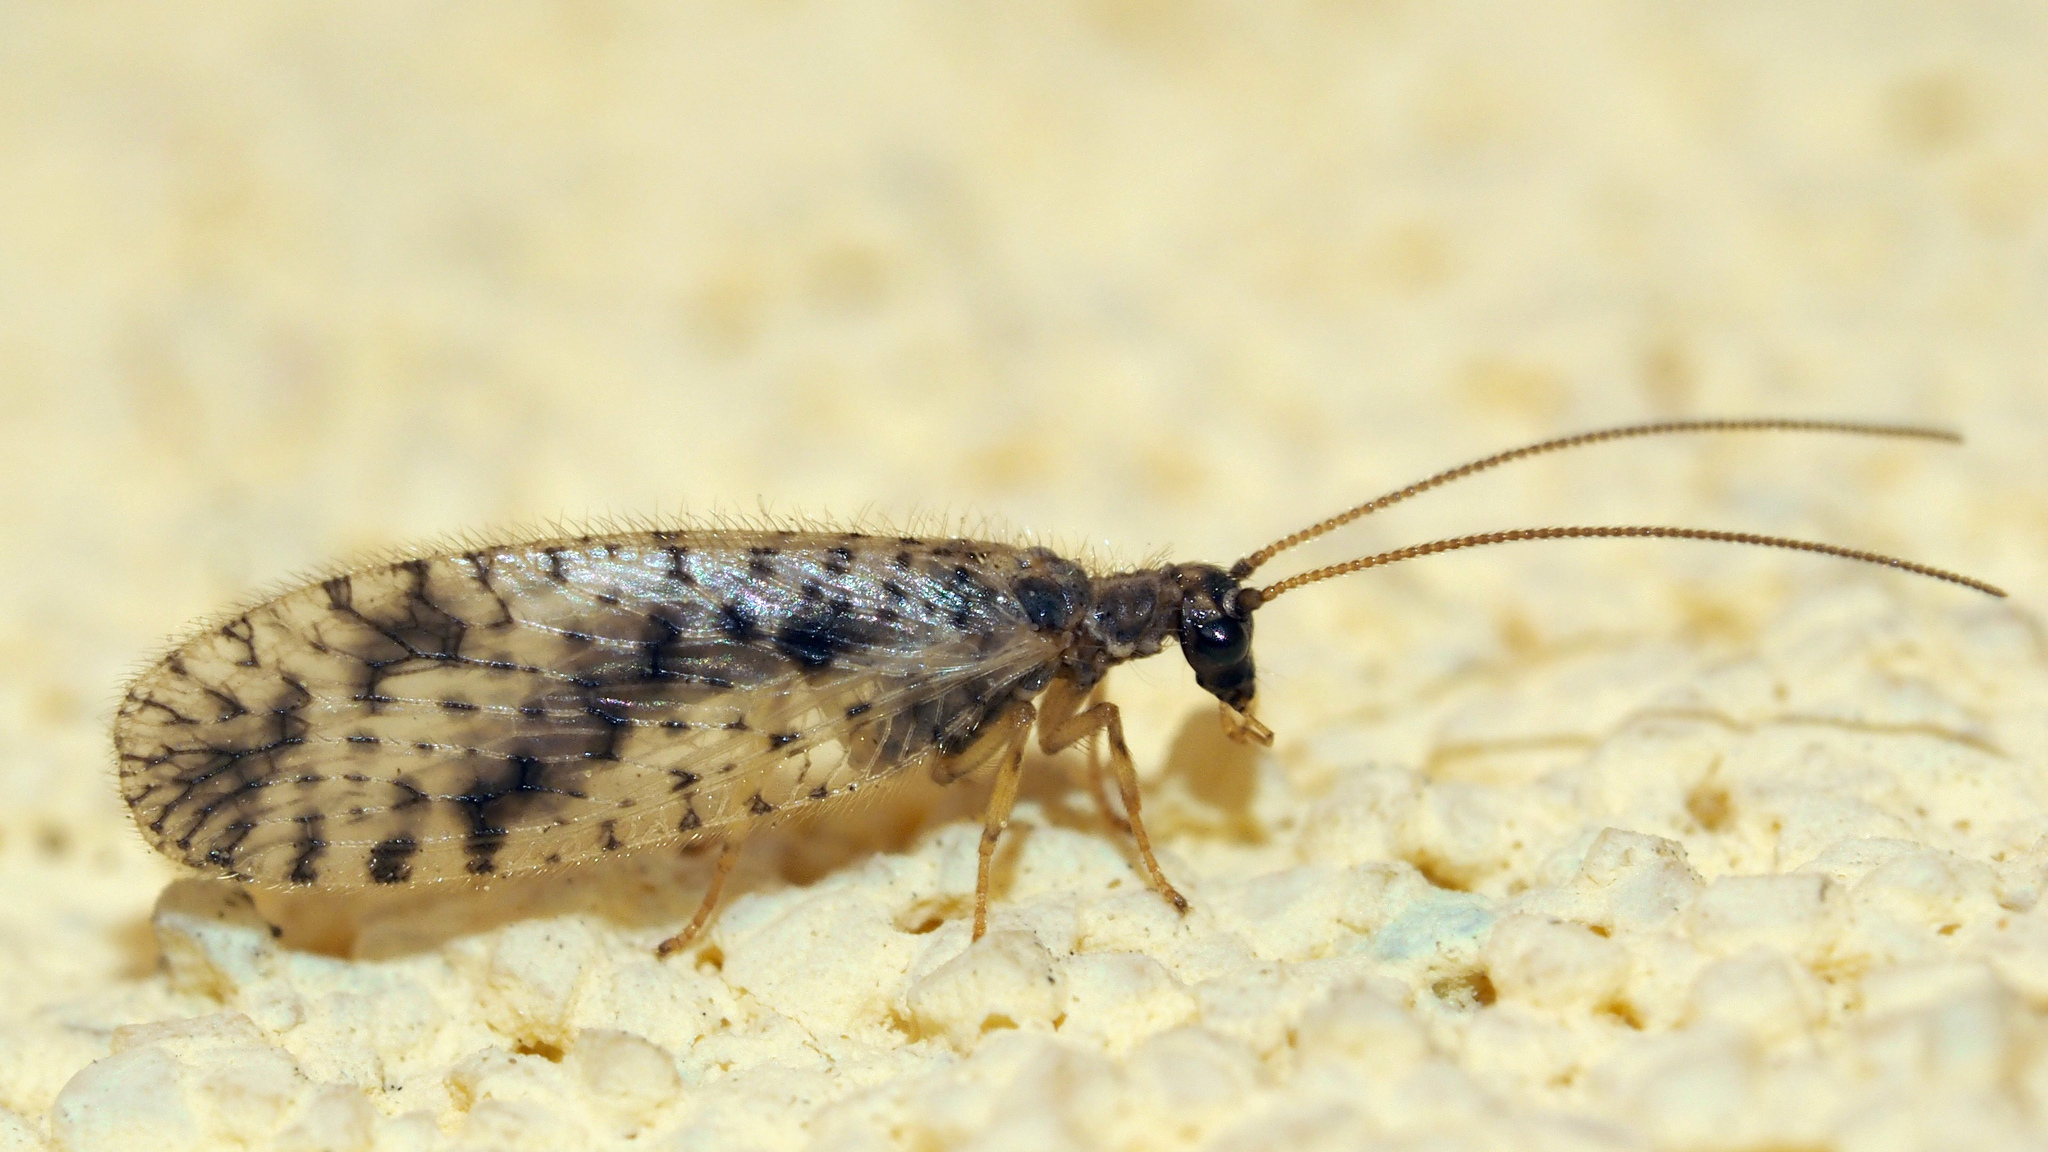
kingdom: Animalia
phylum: Arthropoda
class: Insecta
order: Neuroptera
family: Hemerobiidae
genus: Micromus
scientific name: Micromus variegatus
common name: Brown lacewing
